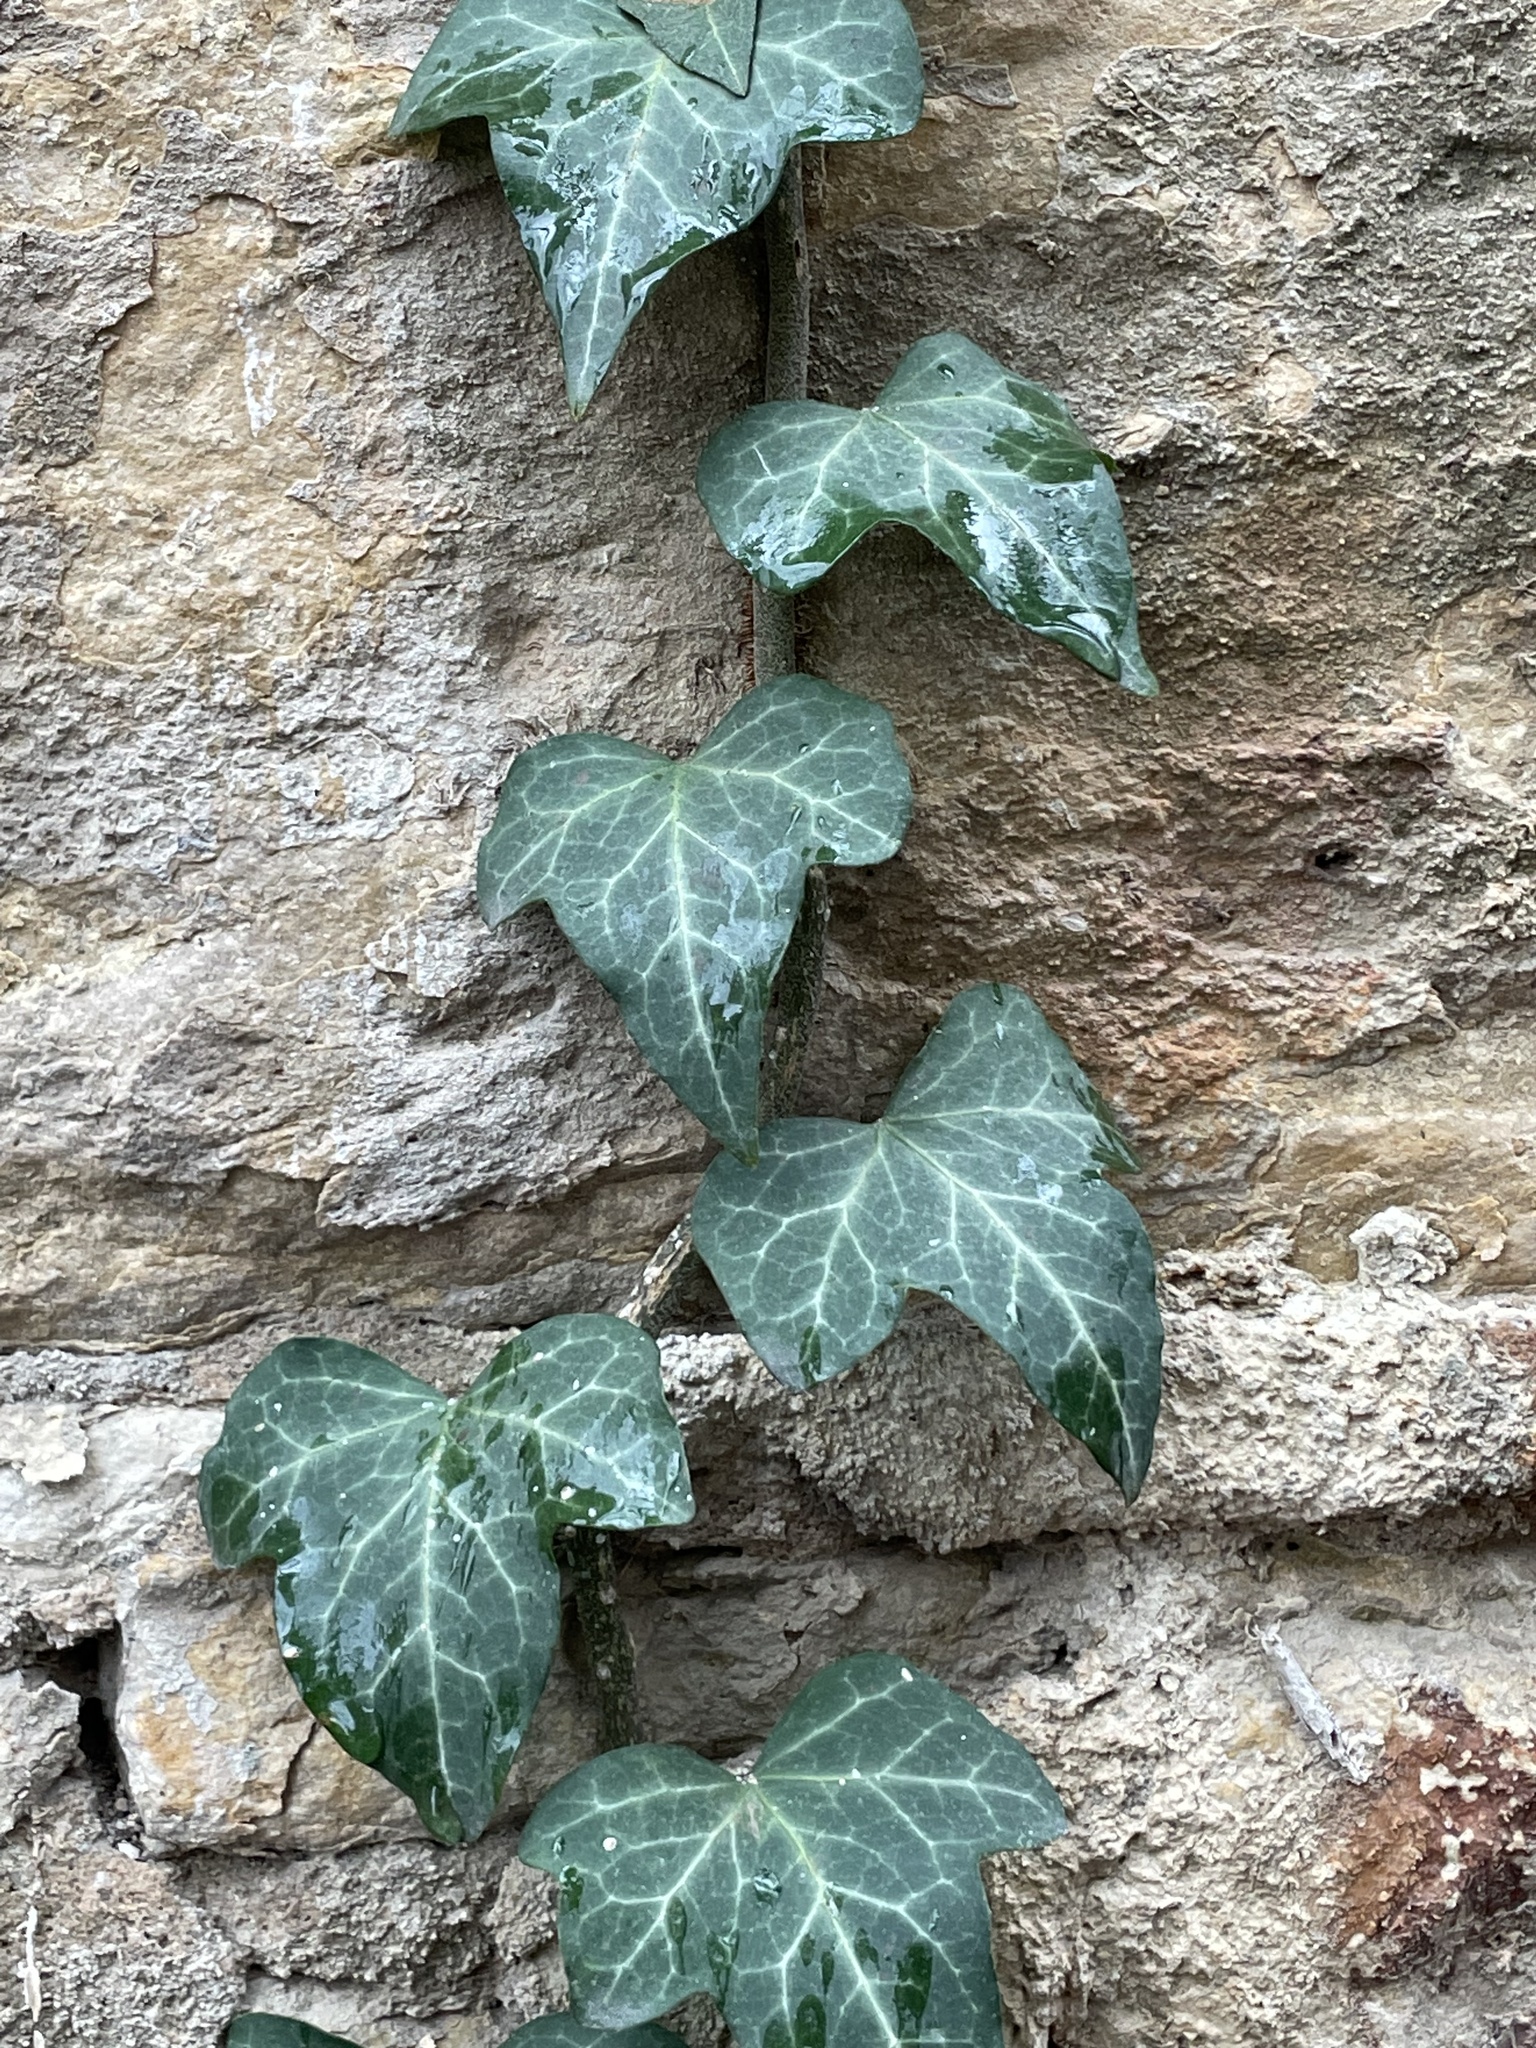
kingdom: Plantae
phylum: Tracheophyta
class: Magnoliopsida
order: Apiales
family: Araliaceae
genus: Hedera
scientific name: Hedera helix
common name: Ivy
